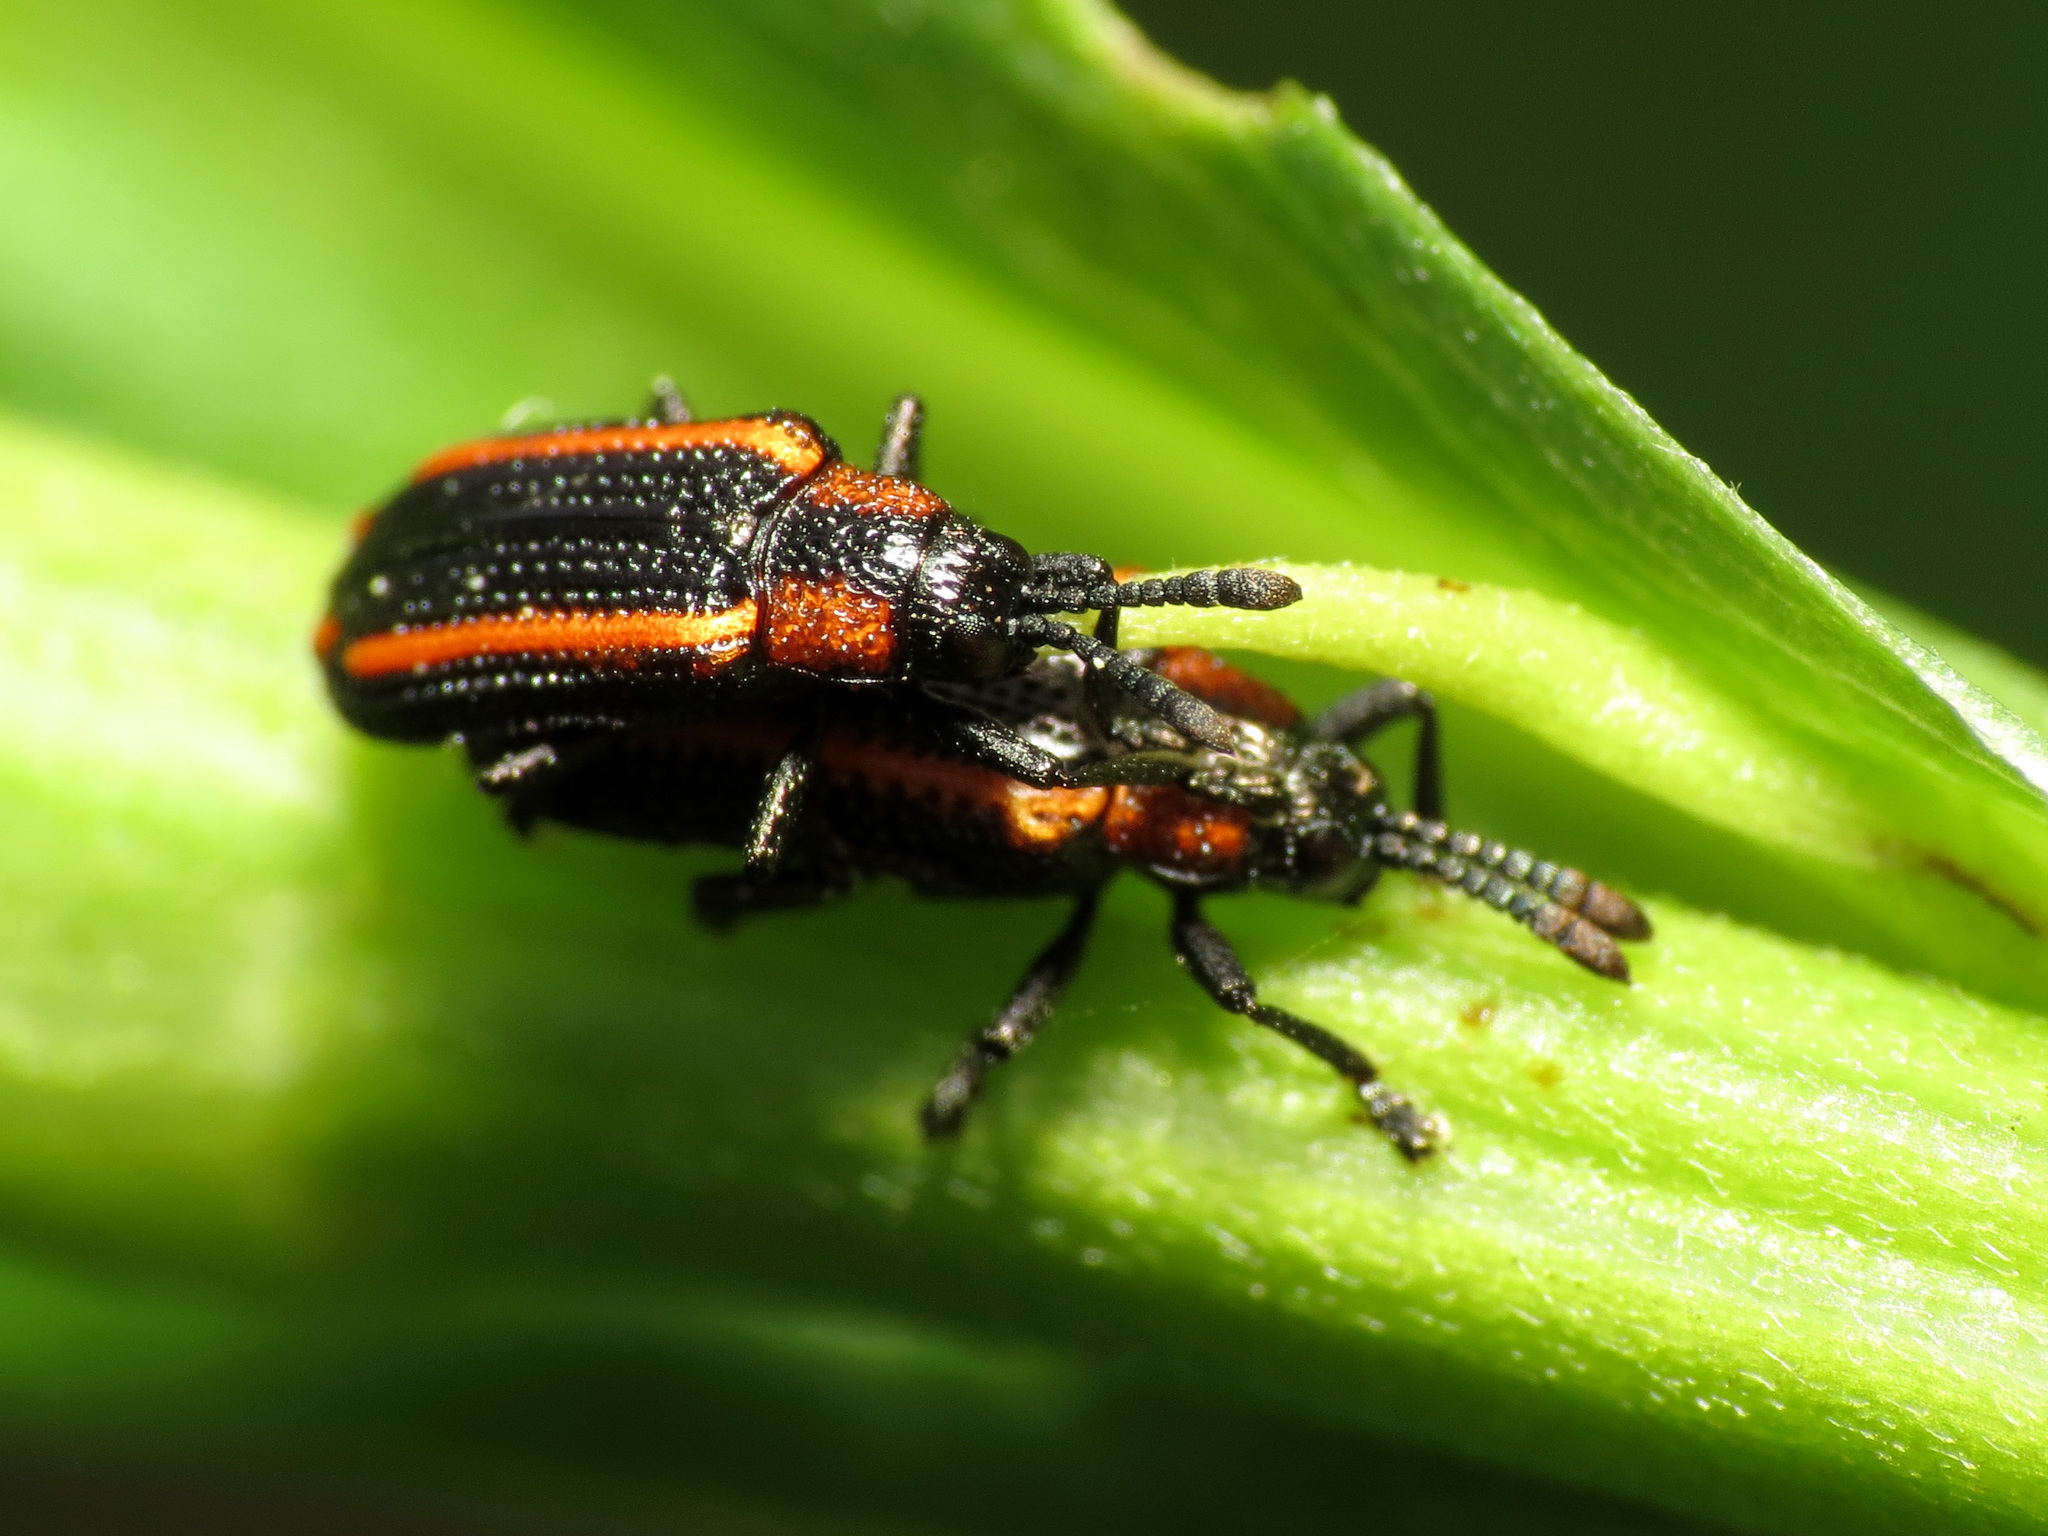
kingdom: Animalia
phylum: Arthropoda
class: Insecta
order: Coleoptera
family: Chrysomelidae
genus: Microrhopala
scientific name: Microrhopala xerene
